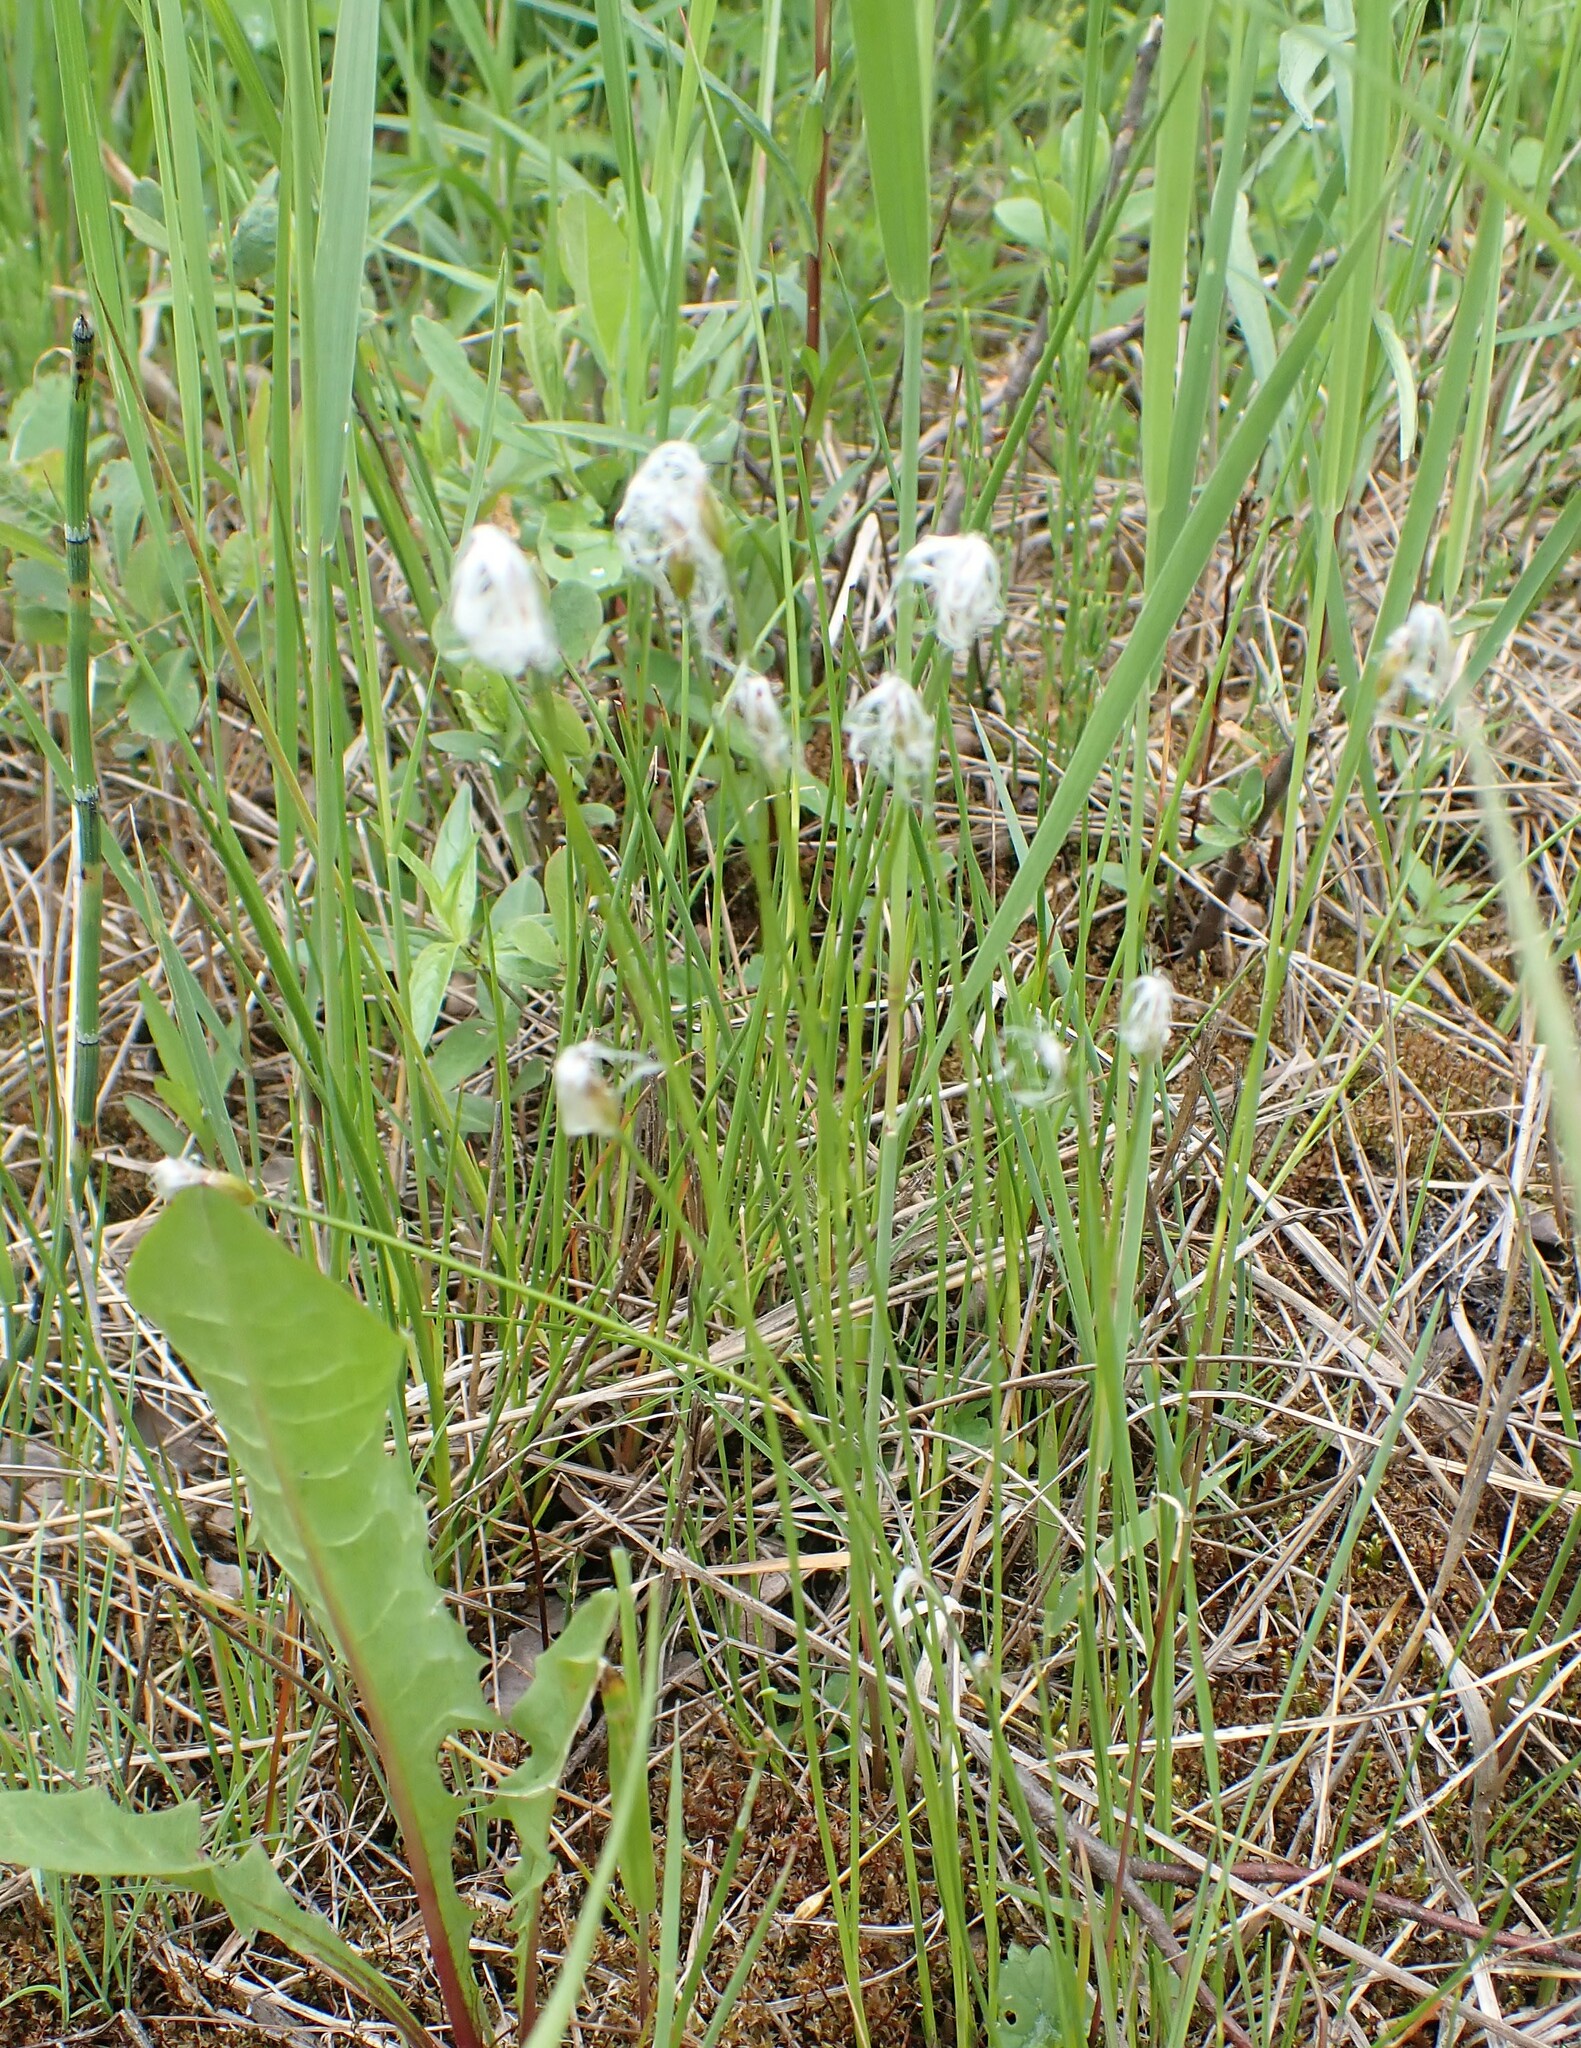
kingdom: Plantae
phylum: Tracheophyta
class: Liliopsida
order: Poales
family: Cyperaceae
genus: Trichophorum
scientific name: Trichophorum alpinum
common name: Alpine bulrush
